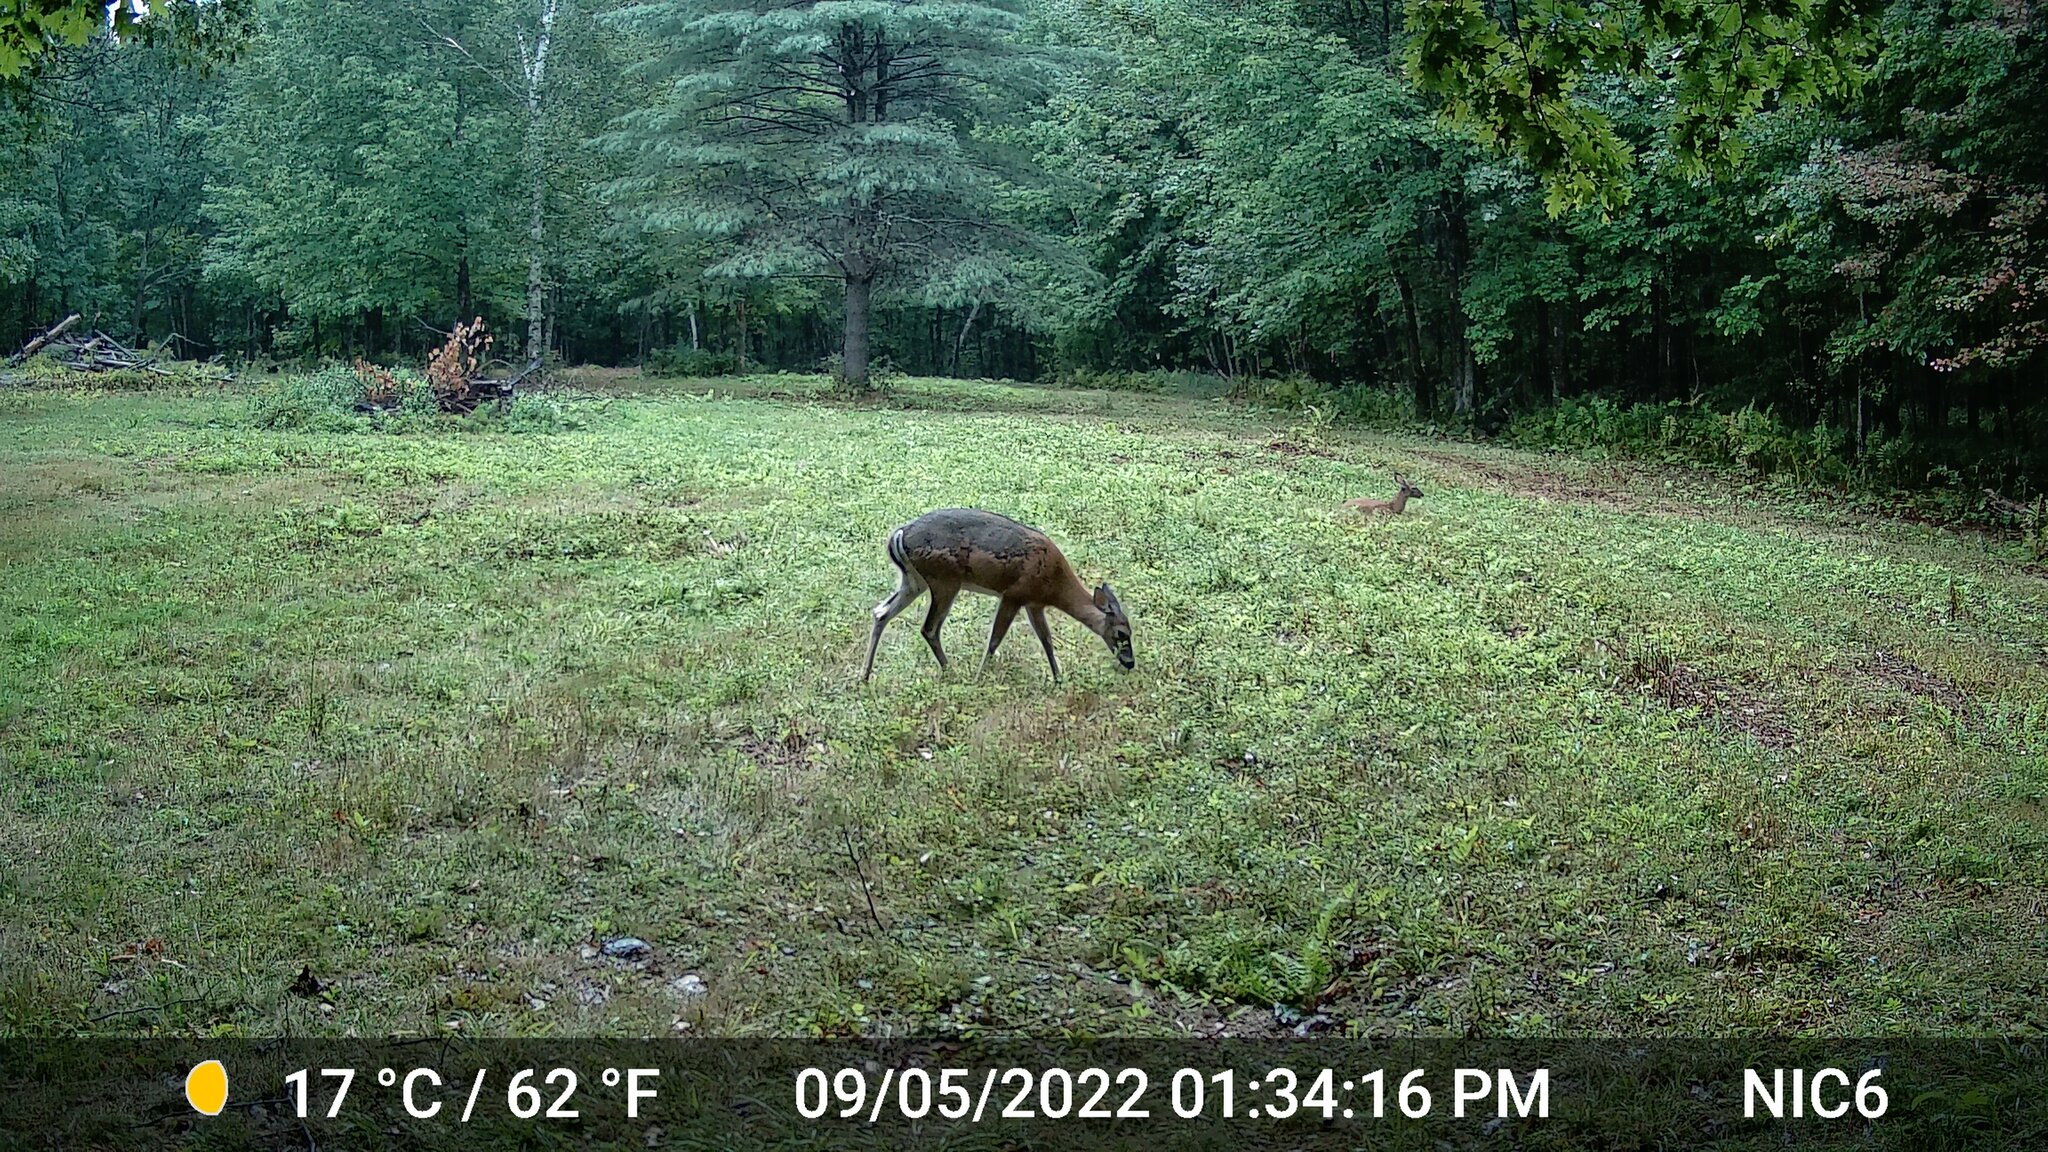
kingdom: Animalia
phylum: Chordata
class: Mammalia
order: Artiodactyla
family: Cervidae
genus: Odocoileus
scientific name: Odocoileus virginianus
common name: White-tailed deer
